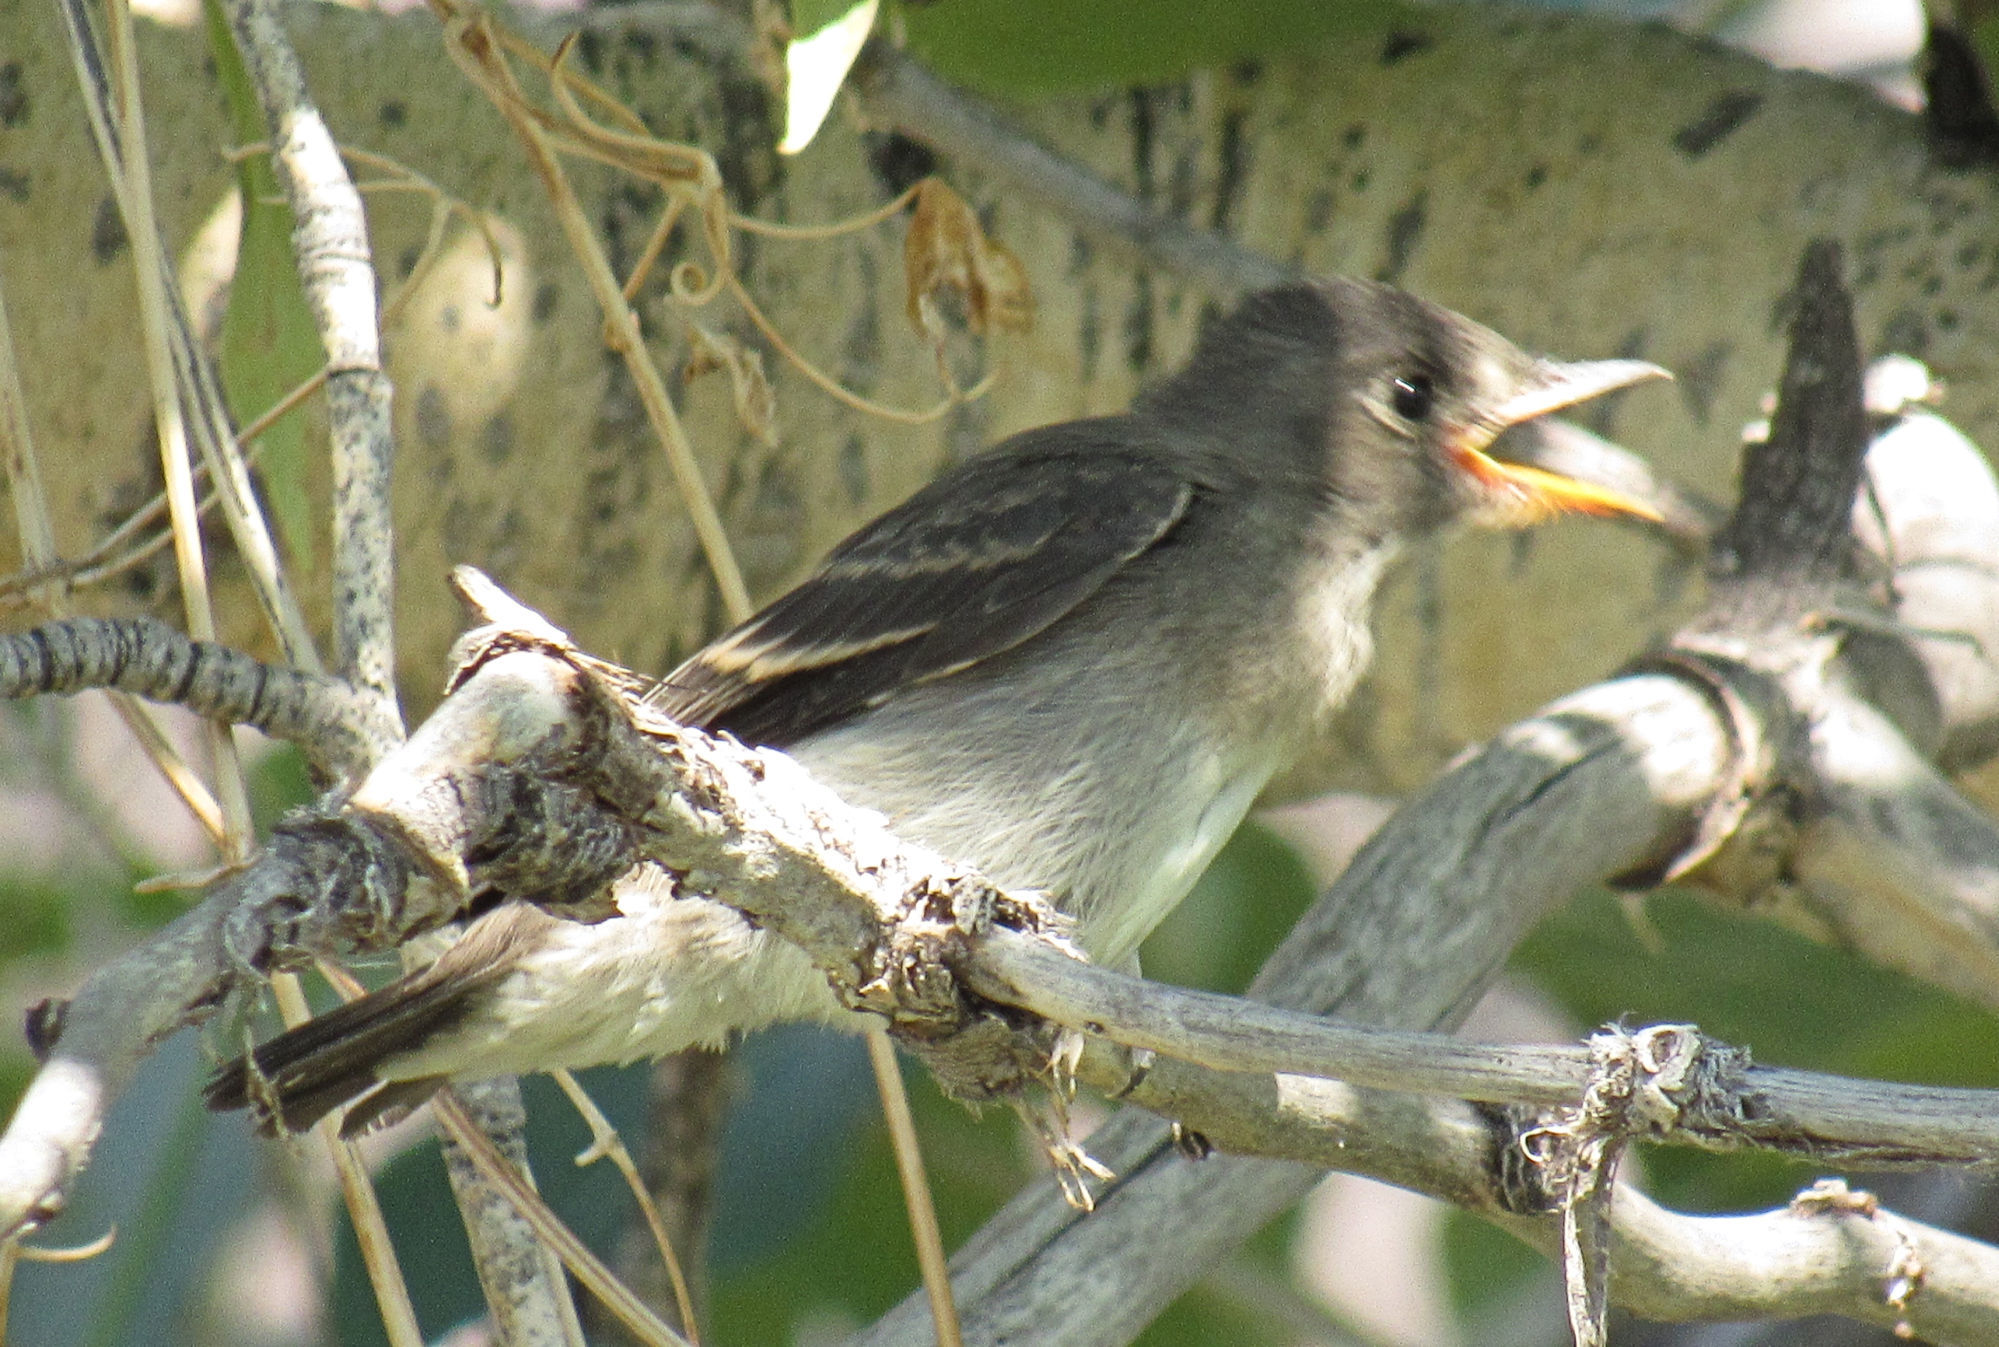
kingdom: Animalia
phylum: Chordata
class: Aves
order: Passeriformes
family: Tyrannidae
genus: Contopus
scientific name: Contopus sordidulus
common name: Western wood-pewee
